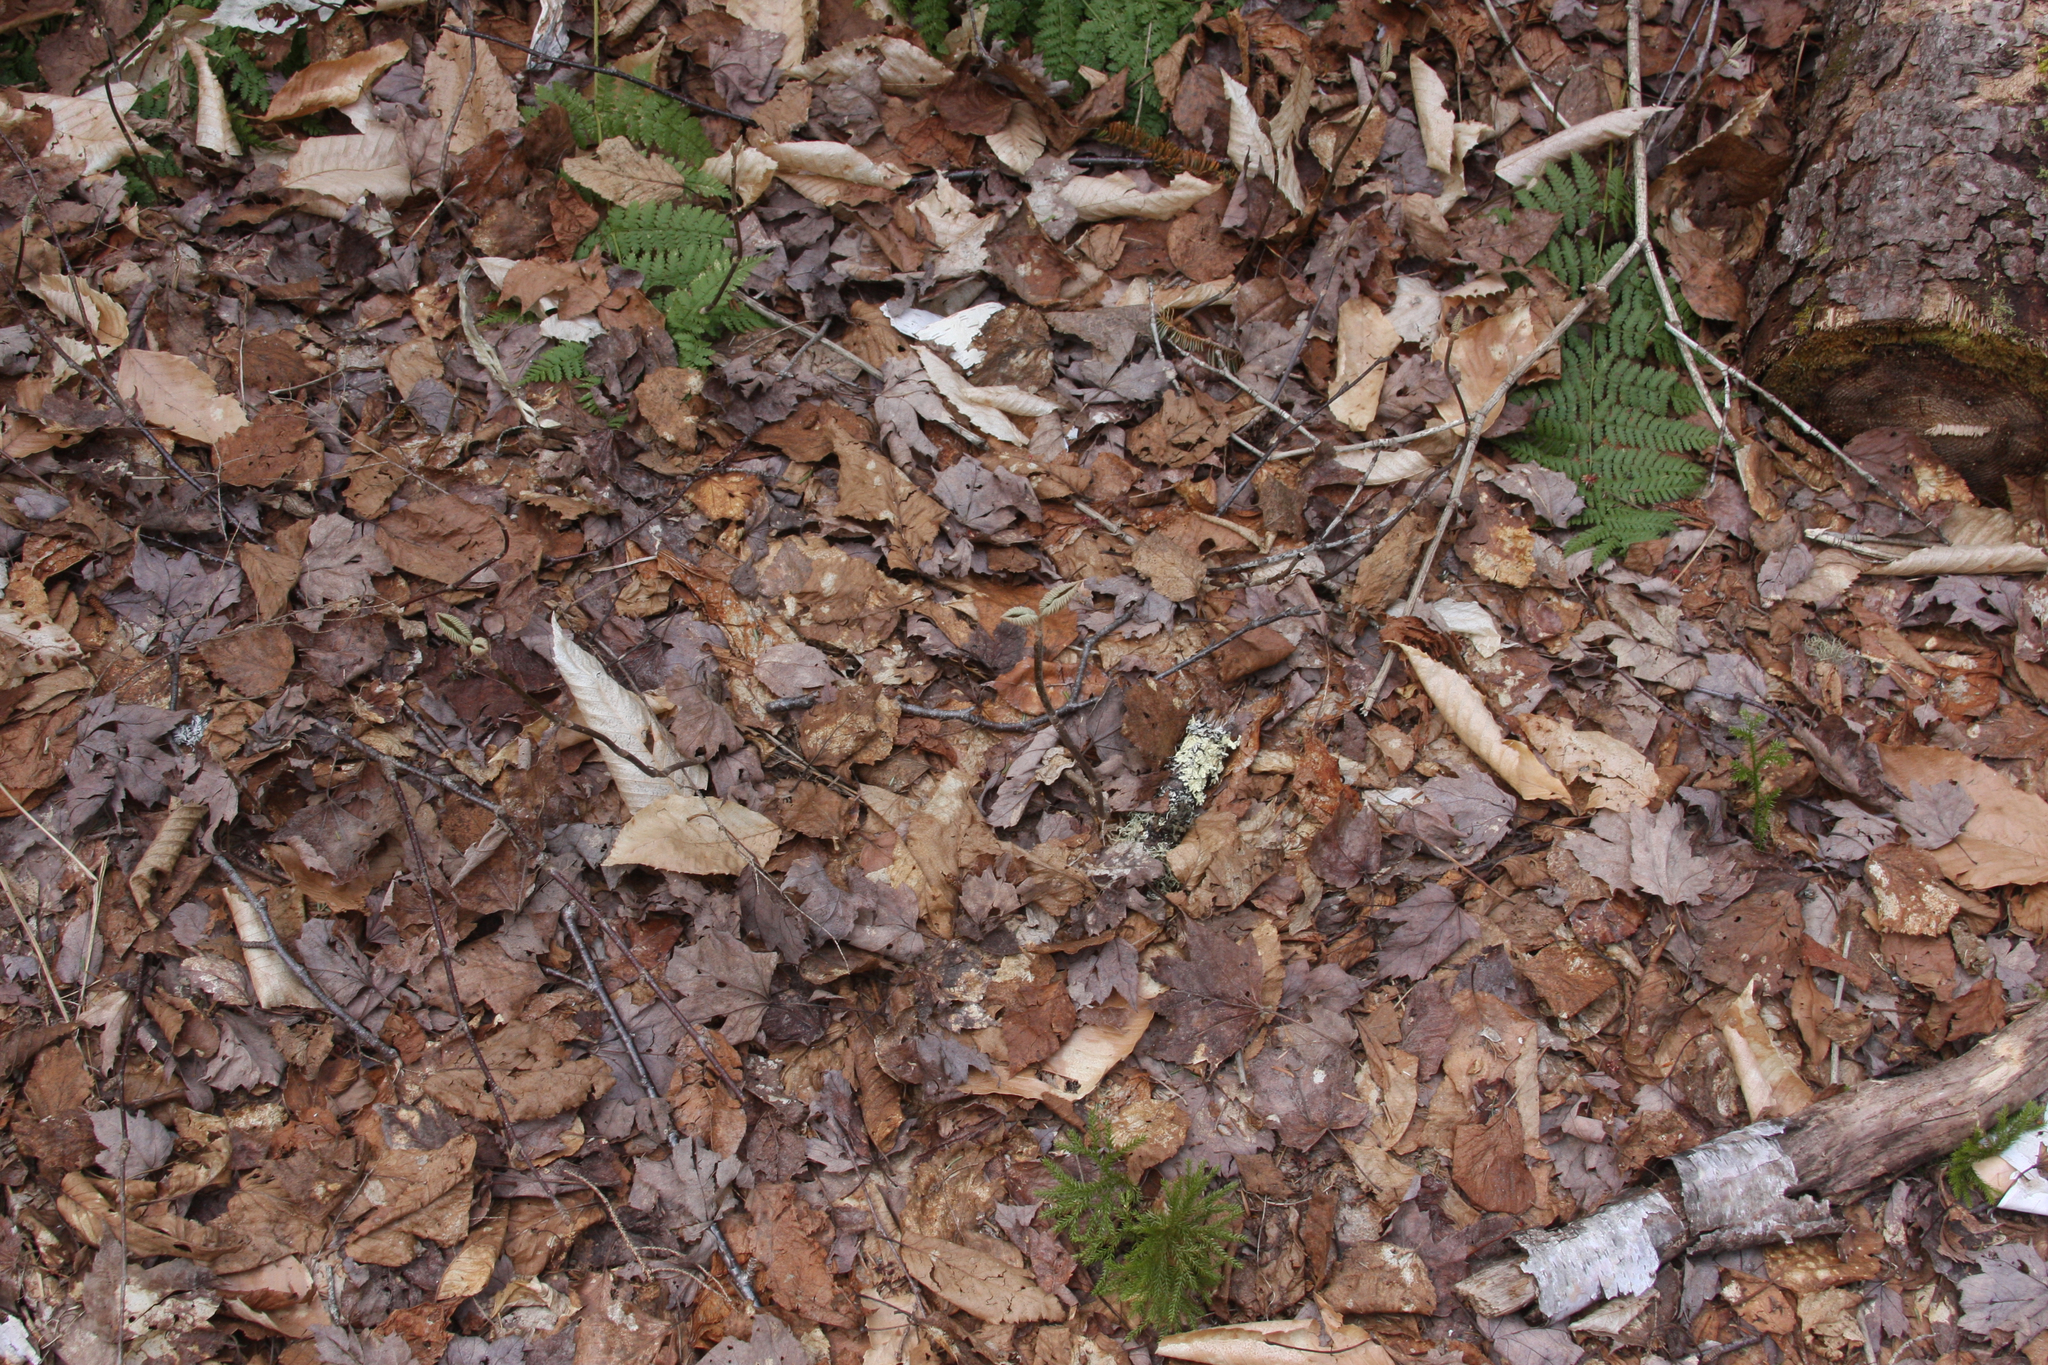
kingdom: Plantae
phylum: Tracheophyta
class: Magnoliopsida
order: Dipsacales
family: Viburnaceae
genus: Viburnum
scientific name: Viburnum lantanoides
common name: Hobblebush
